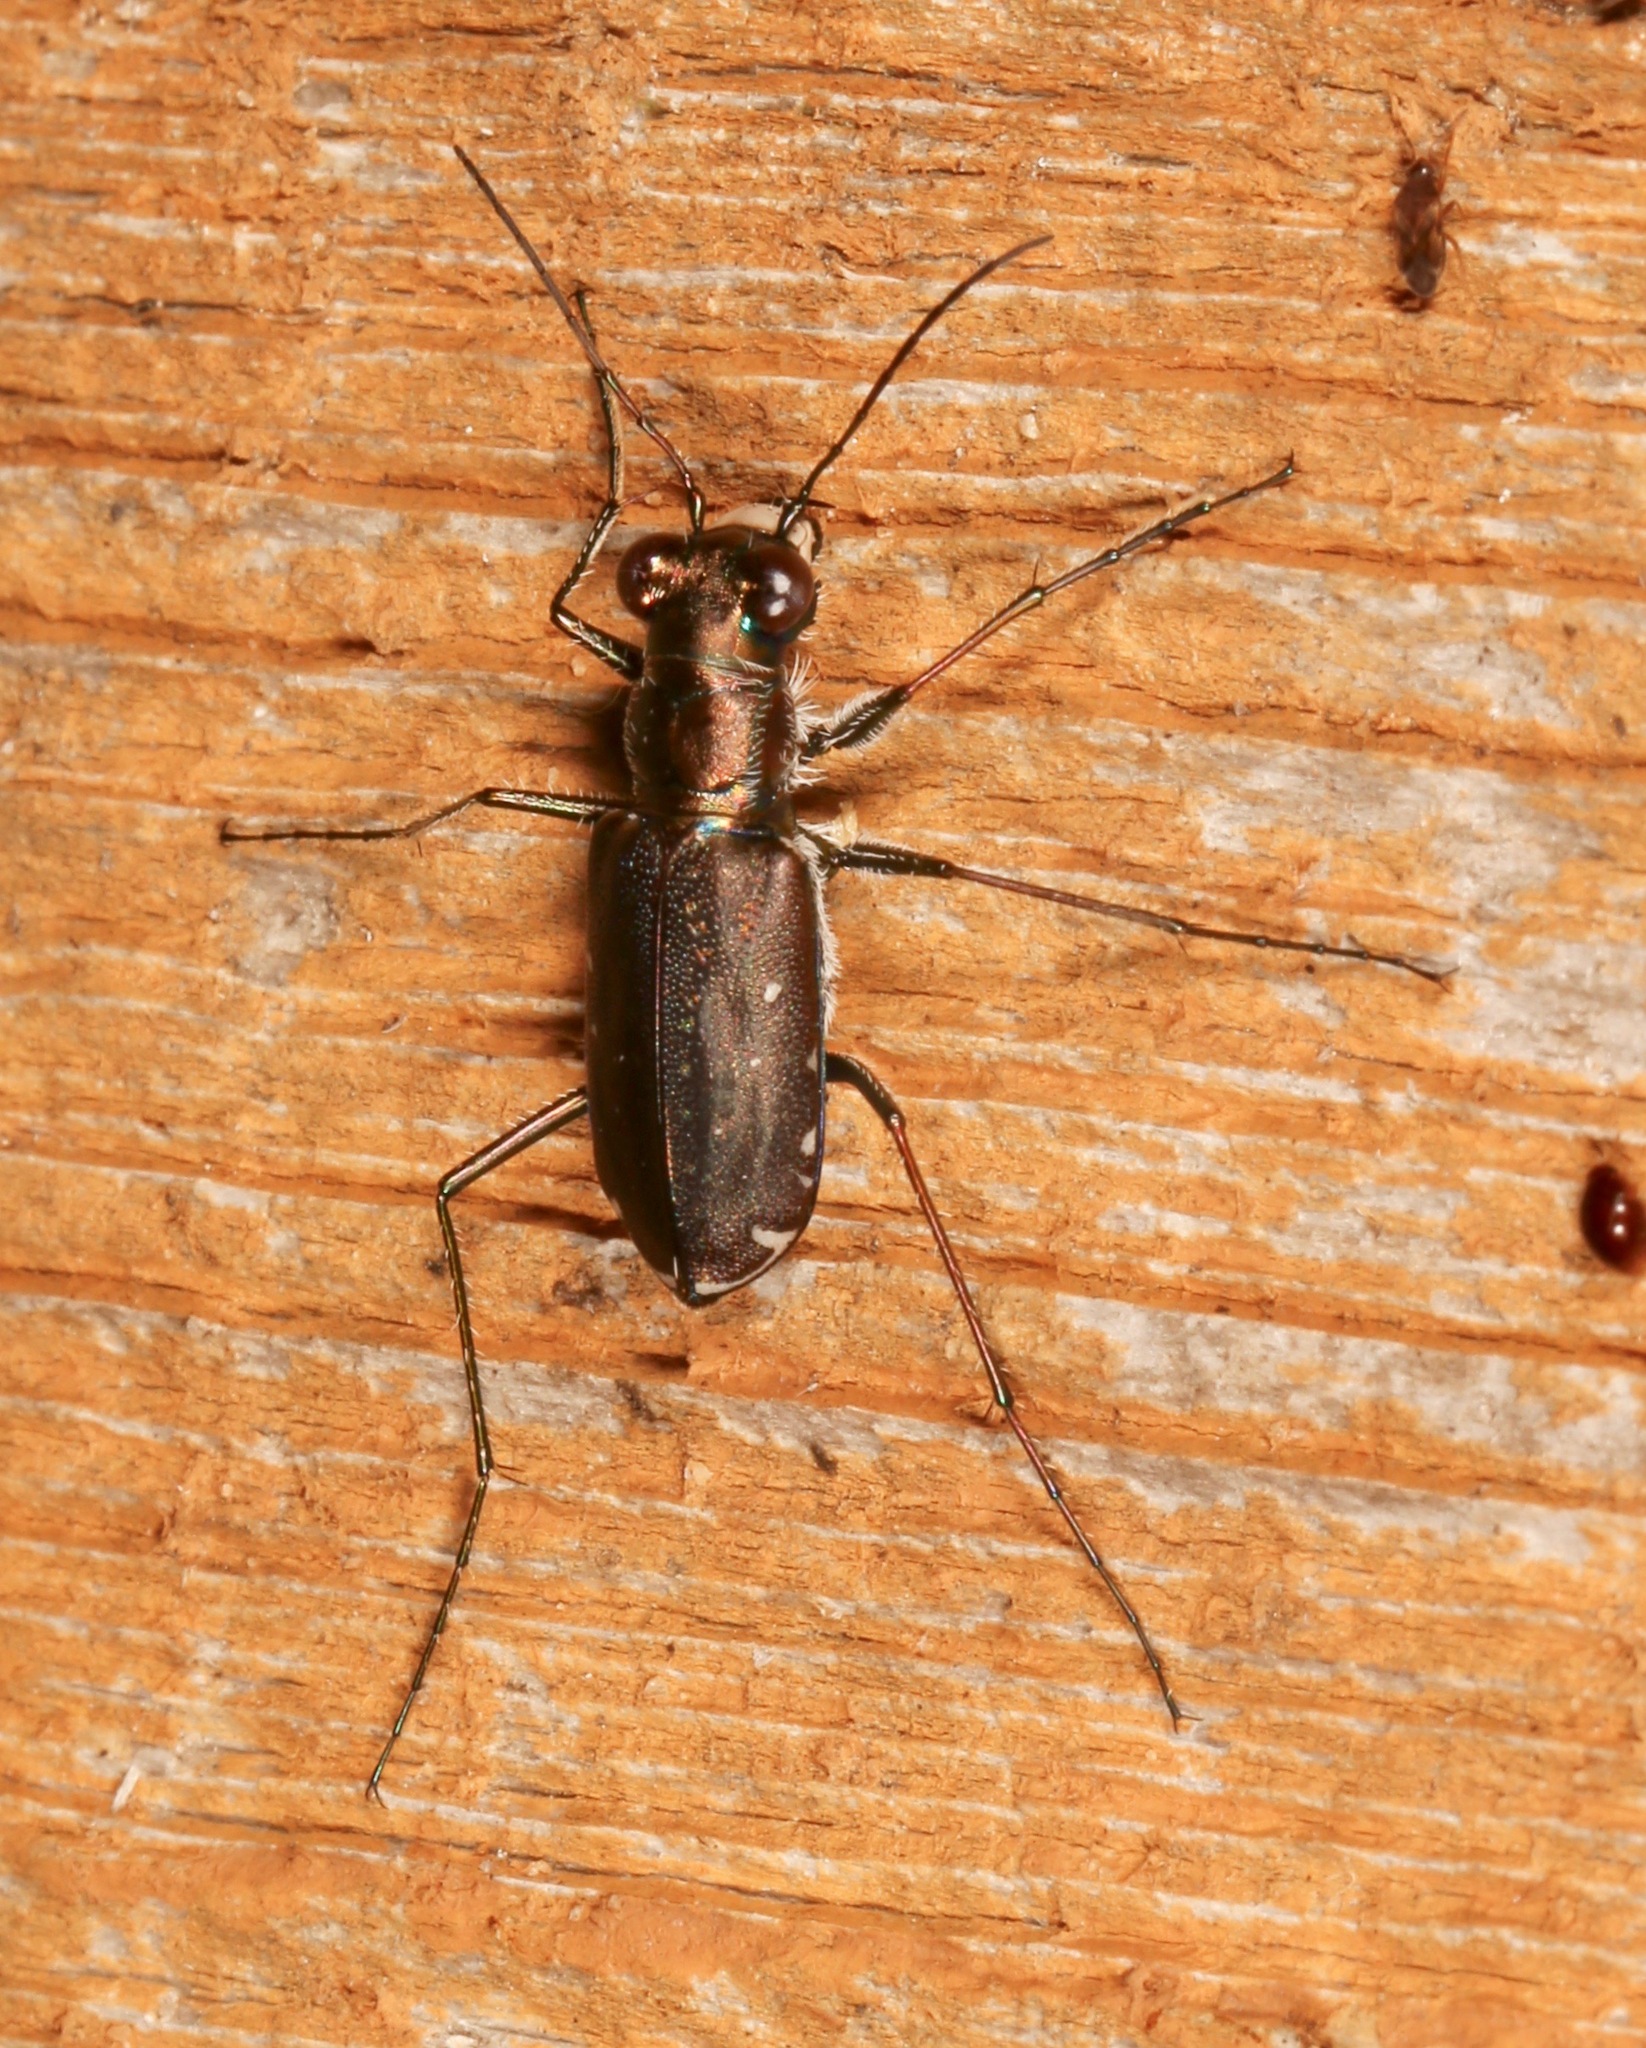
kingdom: Animalia
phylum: Arthropoda
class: Insecta
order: Coleoptera
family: Carabidae
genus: Cicindela
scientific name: Cicindela punctulata
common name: Punctured tiger beetle
